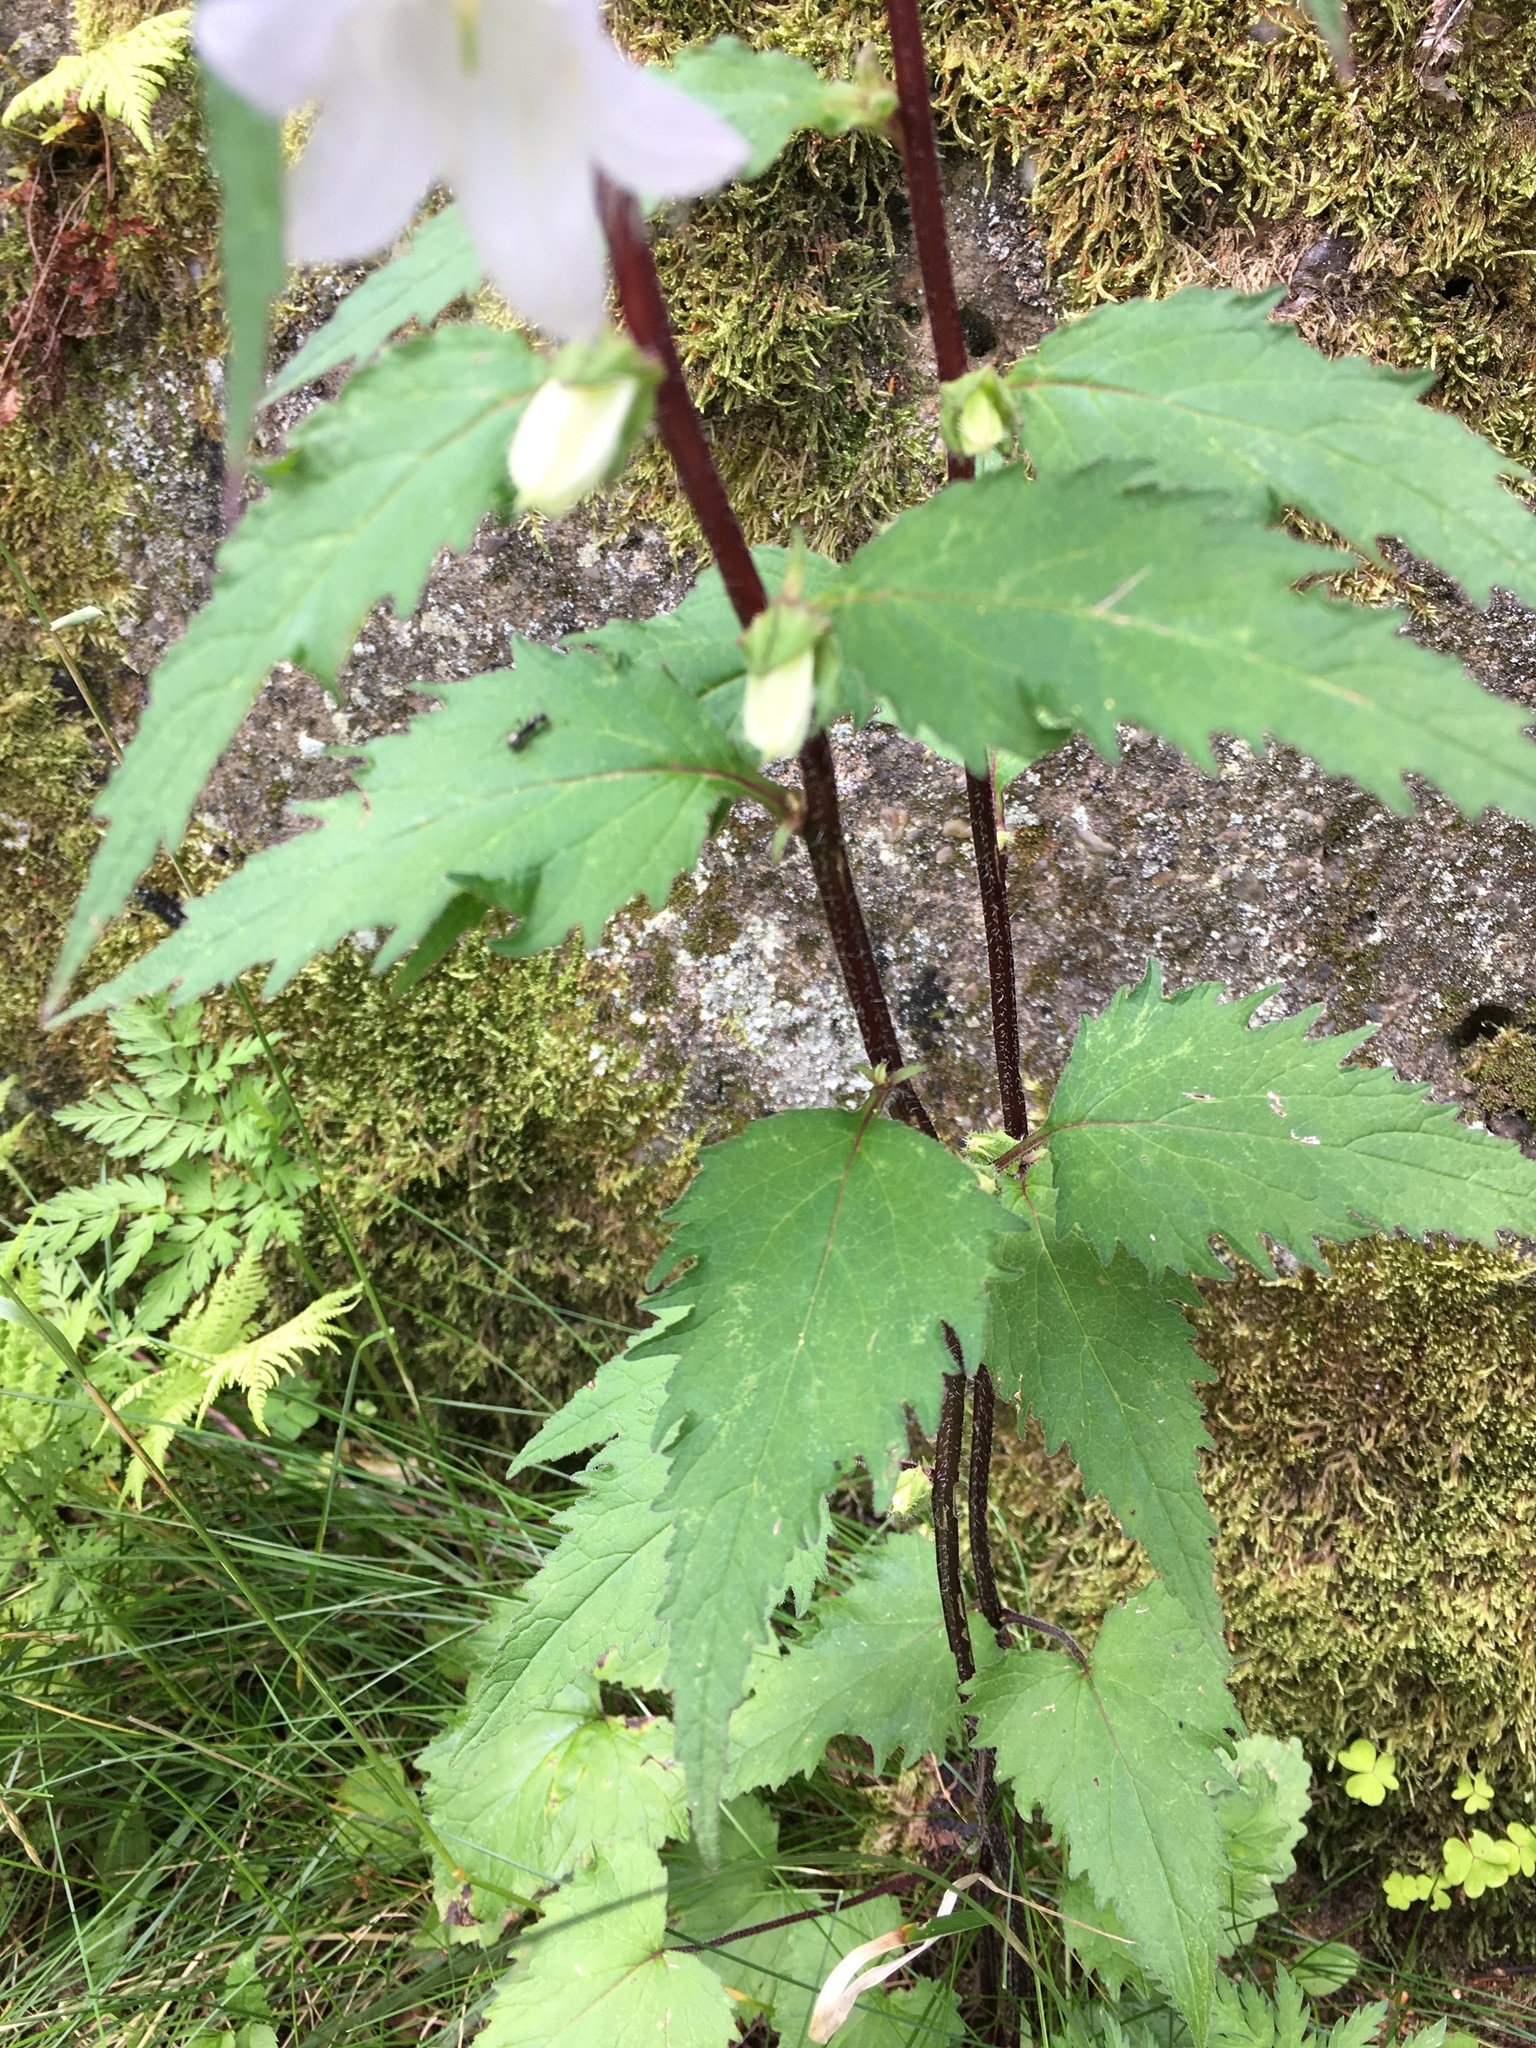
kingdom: Plantae
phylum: Tracheophyta
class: Magnoliopsida
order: Asterales
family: Campanulaceae
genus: Campanula
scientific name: Campanula trachelium
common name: Nettle-leaved bellflower
